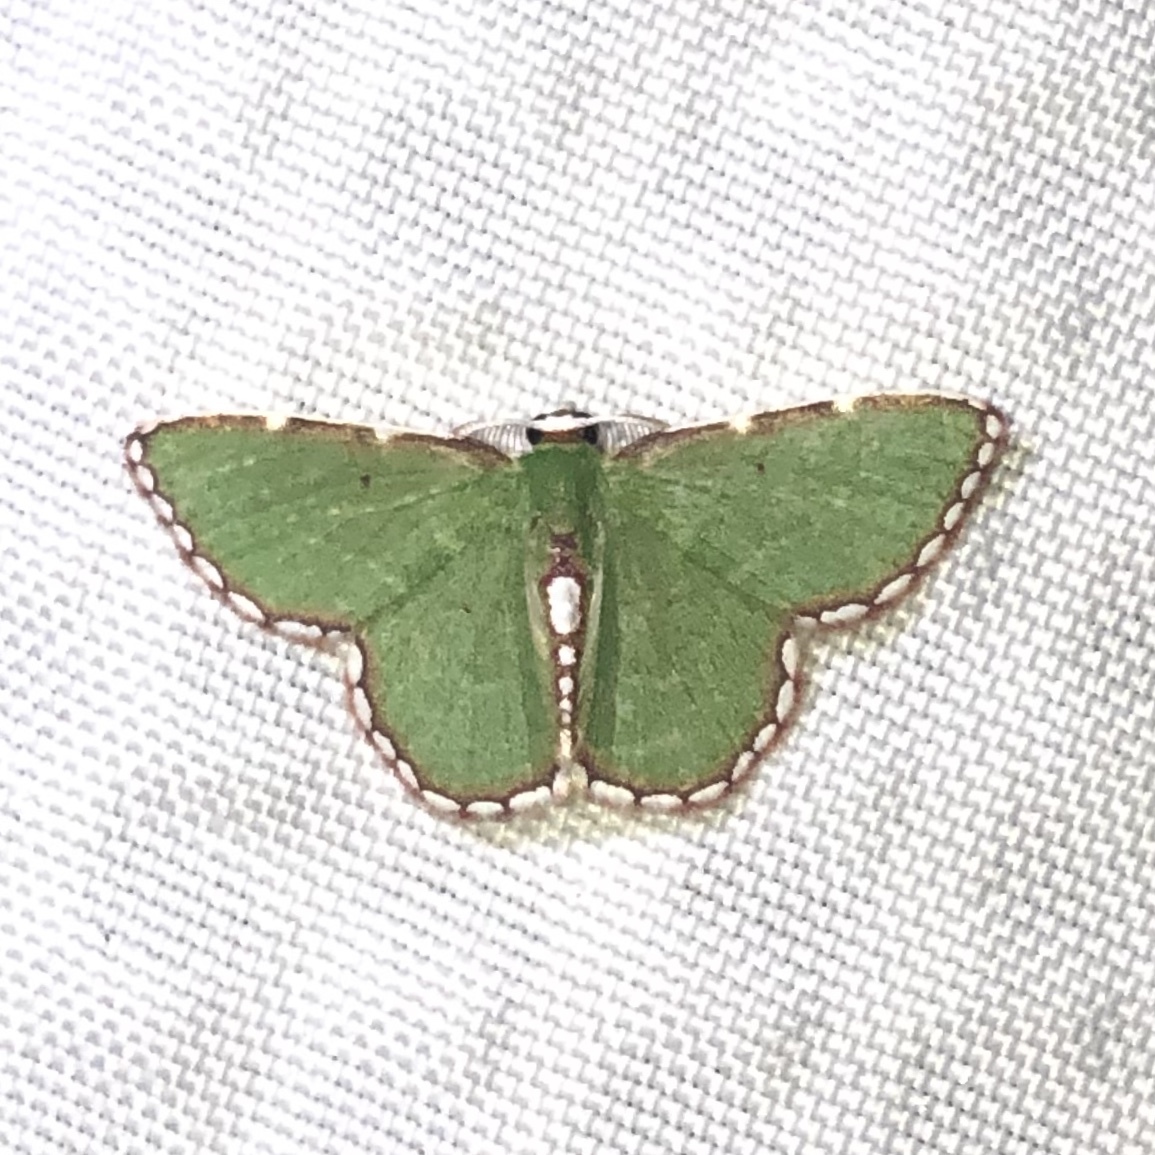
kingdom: Animalia
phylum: Arthropoda
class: Insecta
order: Lepidoptera
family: Geometridae
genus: Synchlora
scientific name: Synchlora pulchrifimbria
